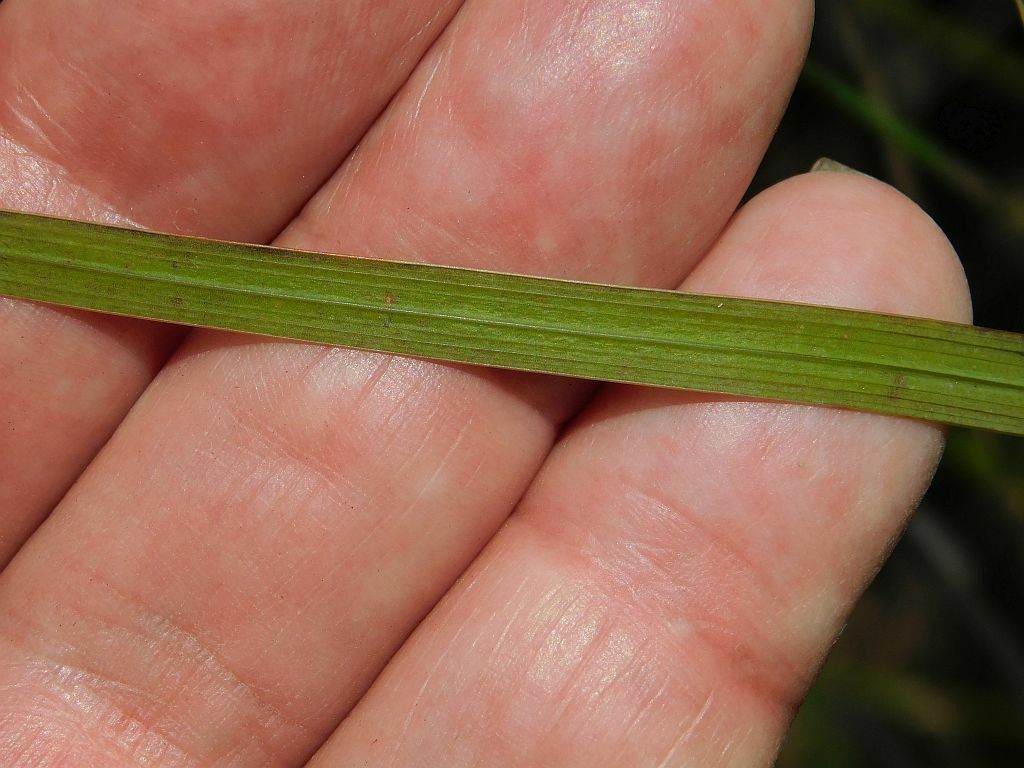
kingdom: Plantae
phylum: Tracheophyta
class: Liliopsida
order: Asparagales
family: Iridaceae
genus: Gladiolus
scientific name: Gladiolus carneus
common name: Painted-lady
